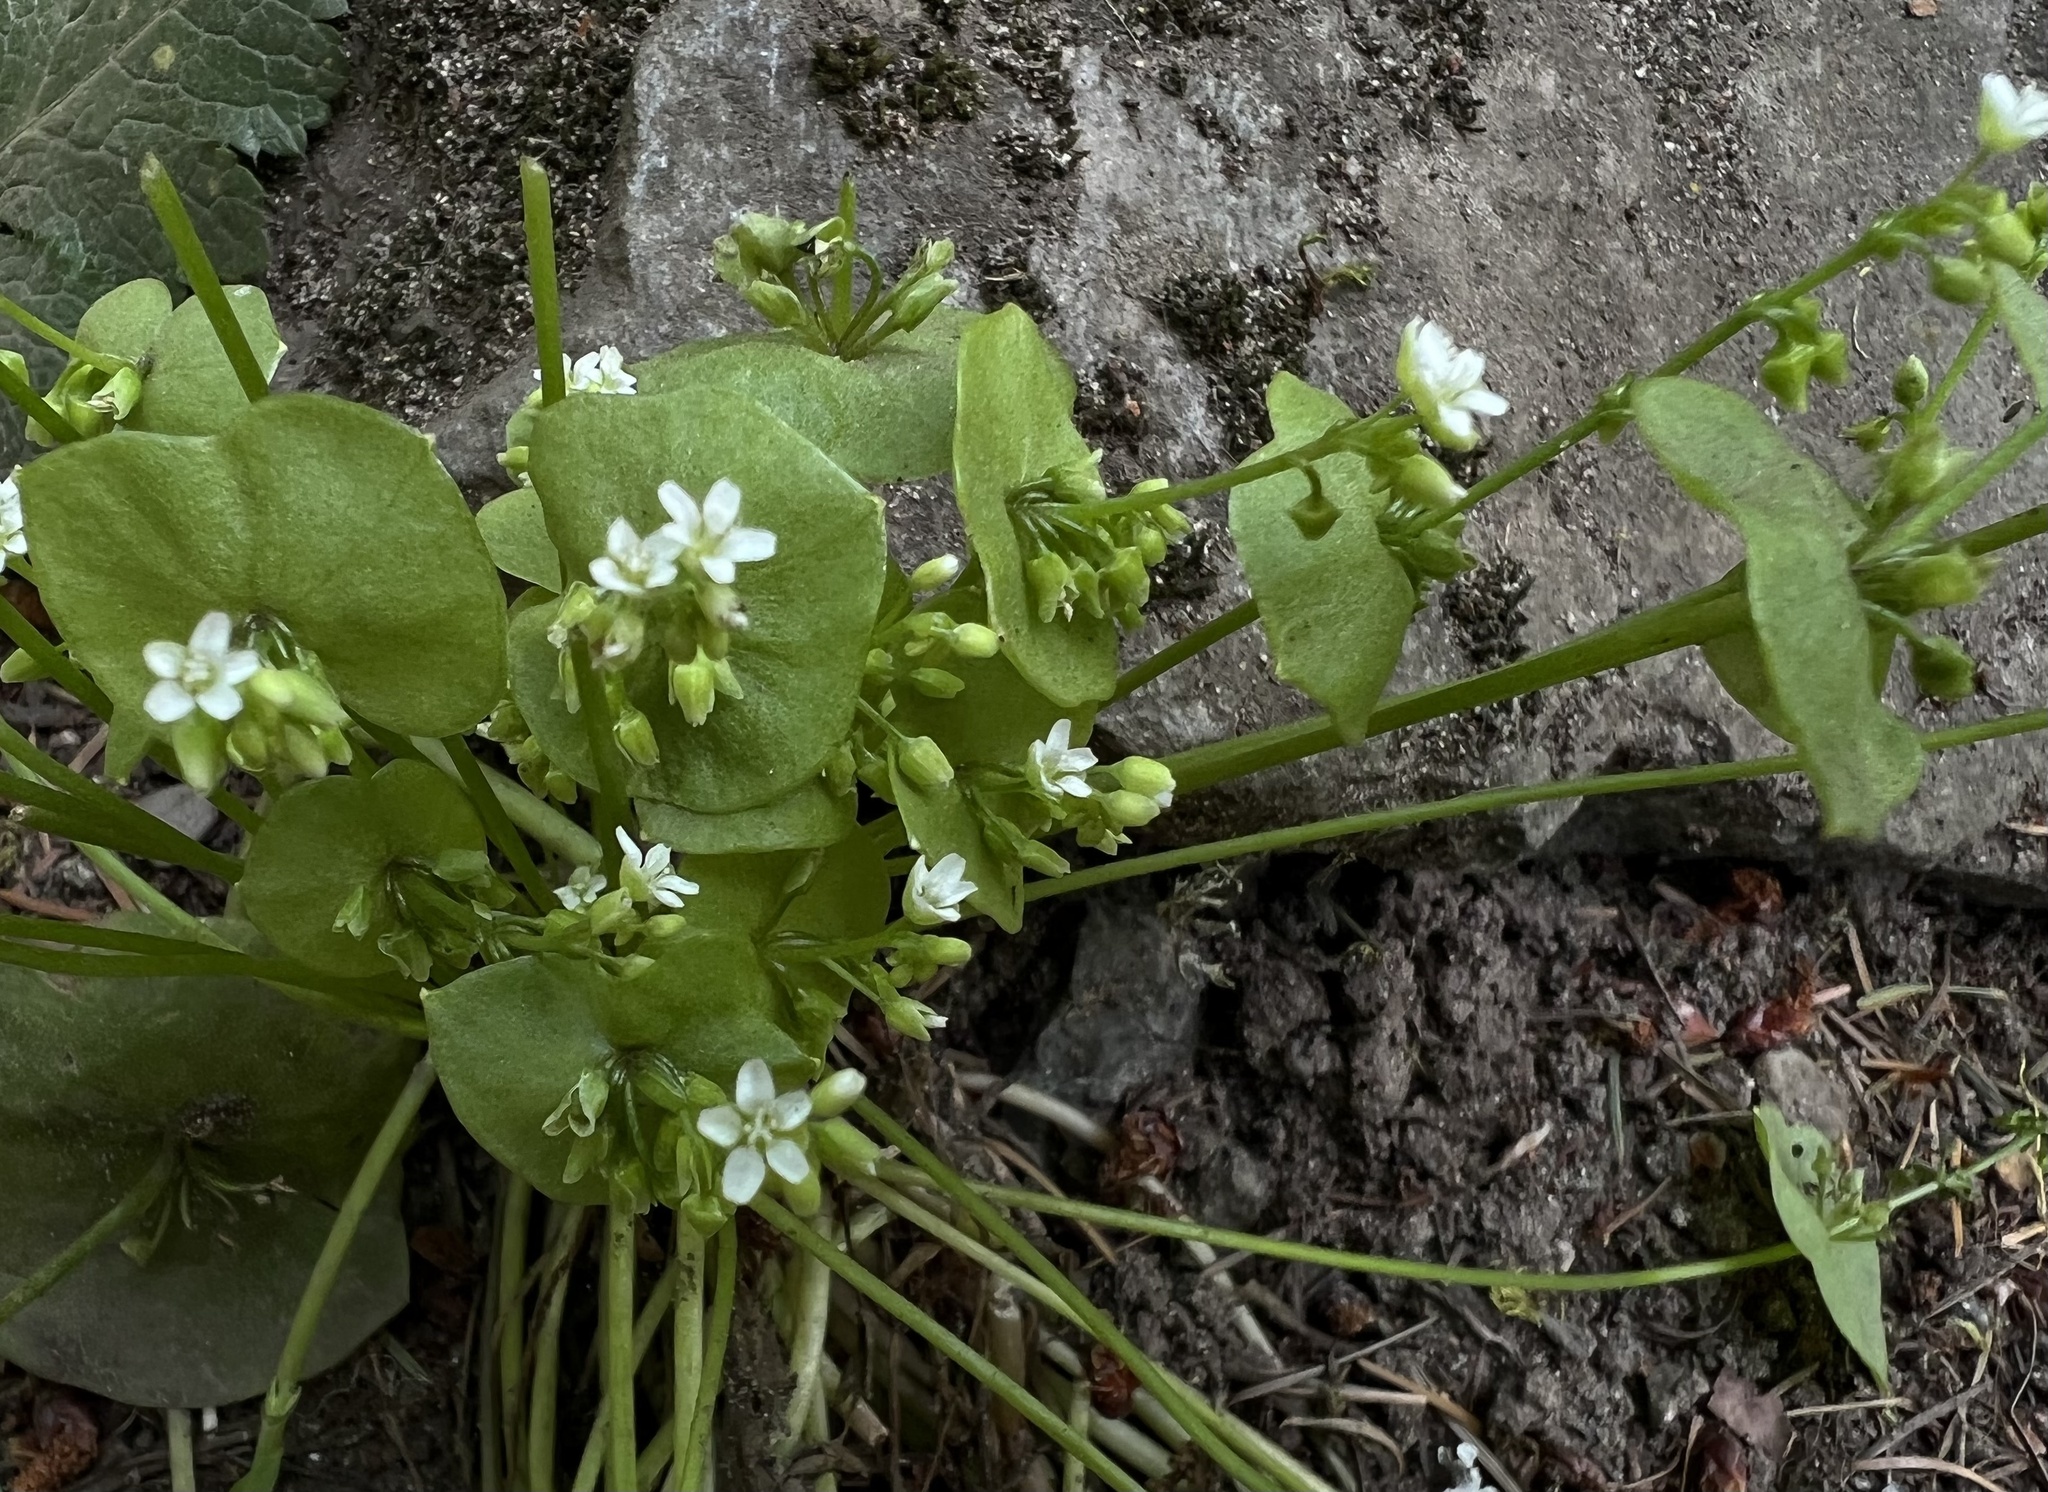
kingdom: Plantae
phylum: Tracheophyta
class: Magnoliopsida
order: Caryophyllales
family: Montiaceae
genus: Claytonia
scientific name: Claytonia perfoliata
